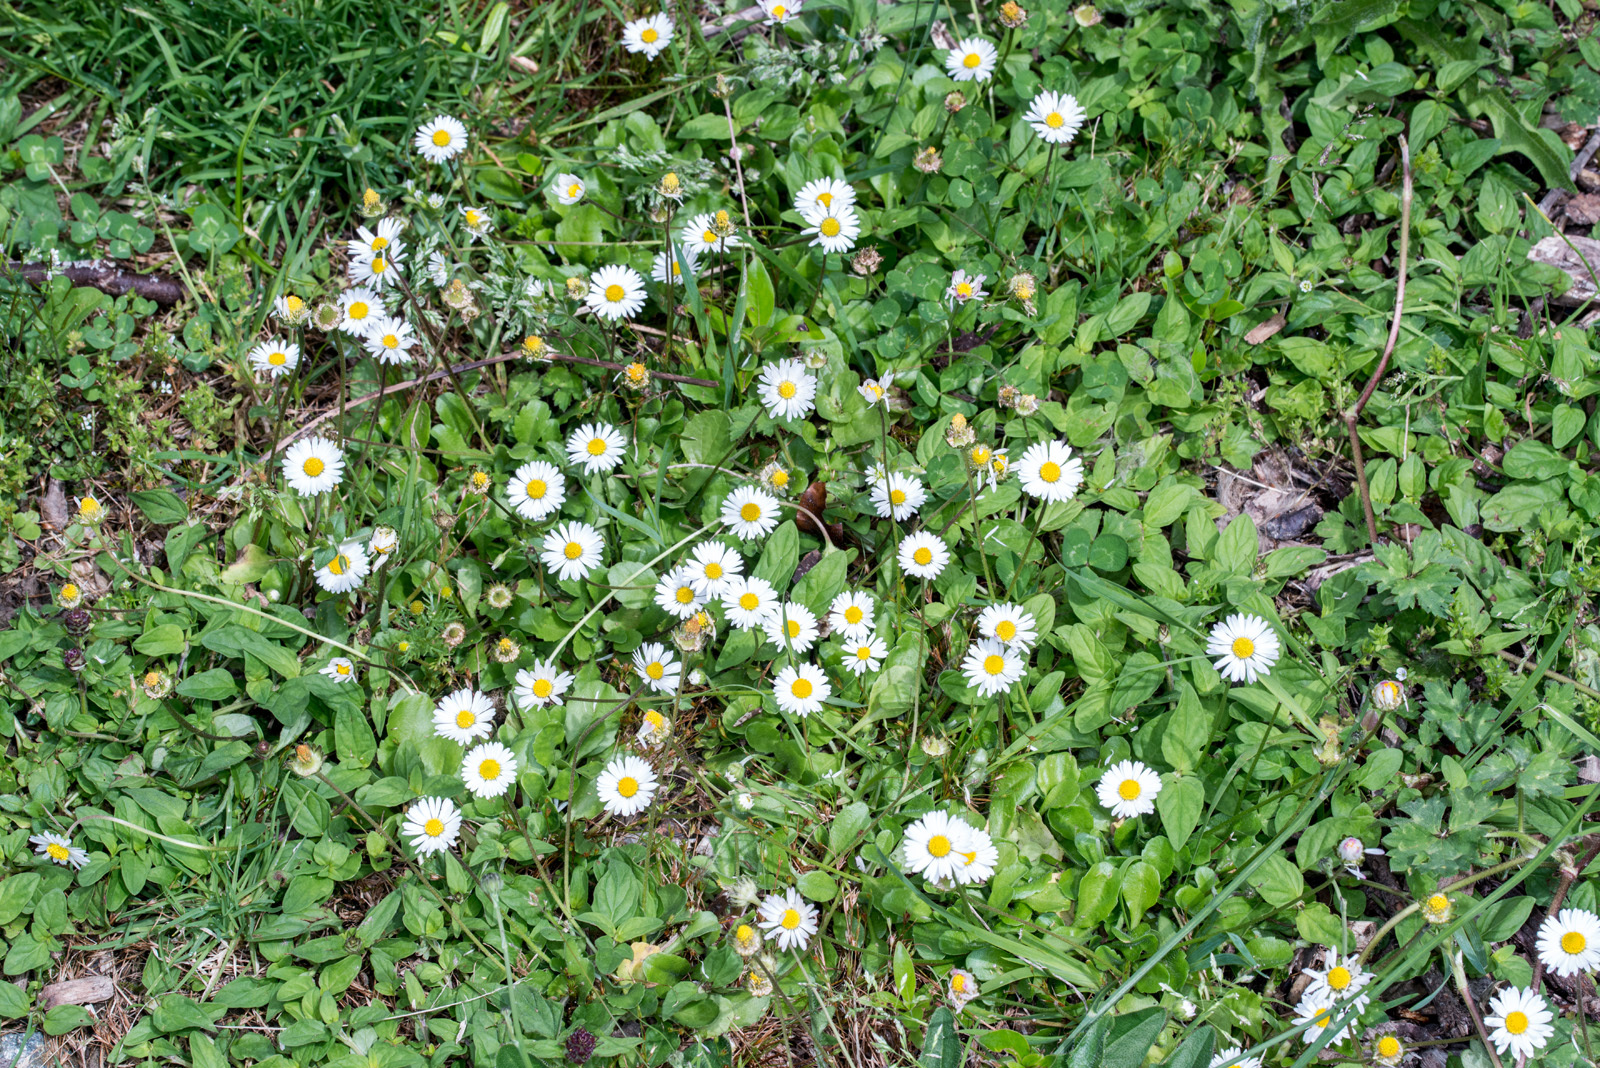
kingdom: Plantae
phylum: Tracheophyta
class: Magnoliopsida
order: Asterales
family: Asteraceae
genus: Bellis
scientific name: Bellis perennis
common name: Lawndaisy
